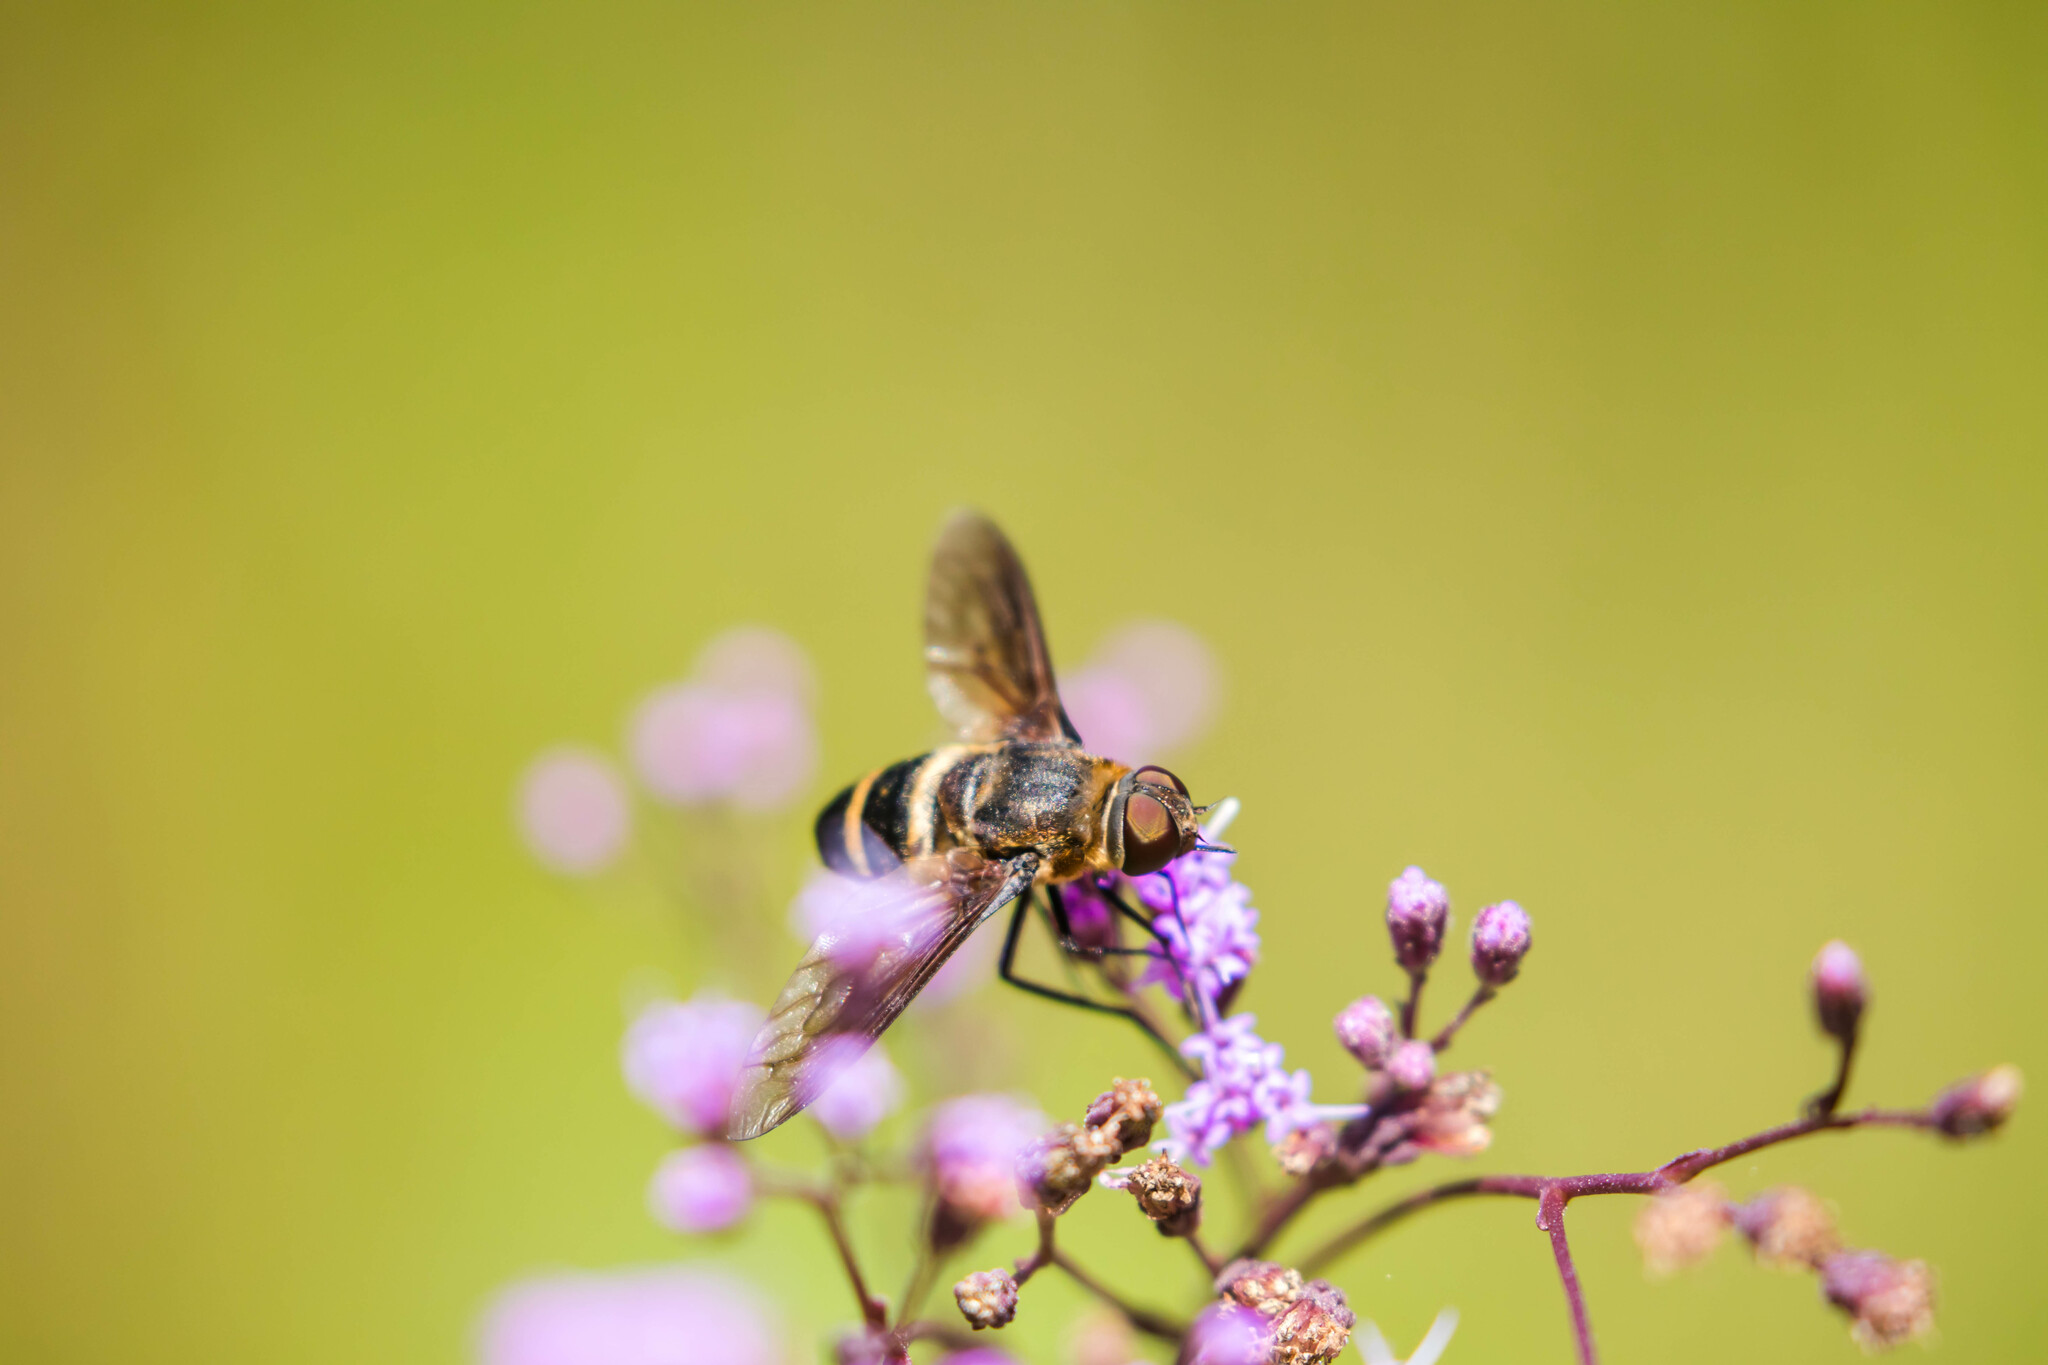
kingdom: Animalia
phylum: Arthropoda
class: Insecta
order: Diptera
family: Bombyliidae
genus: Exoprosopa
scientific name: Exoprosopa fasciata
